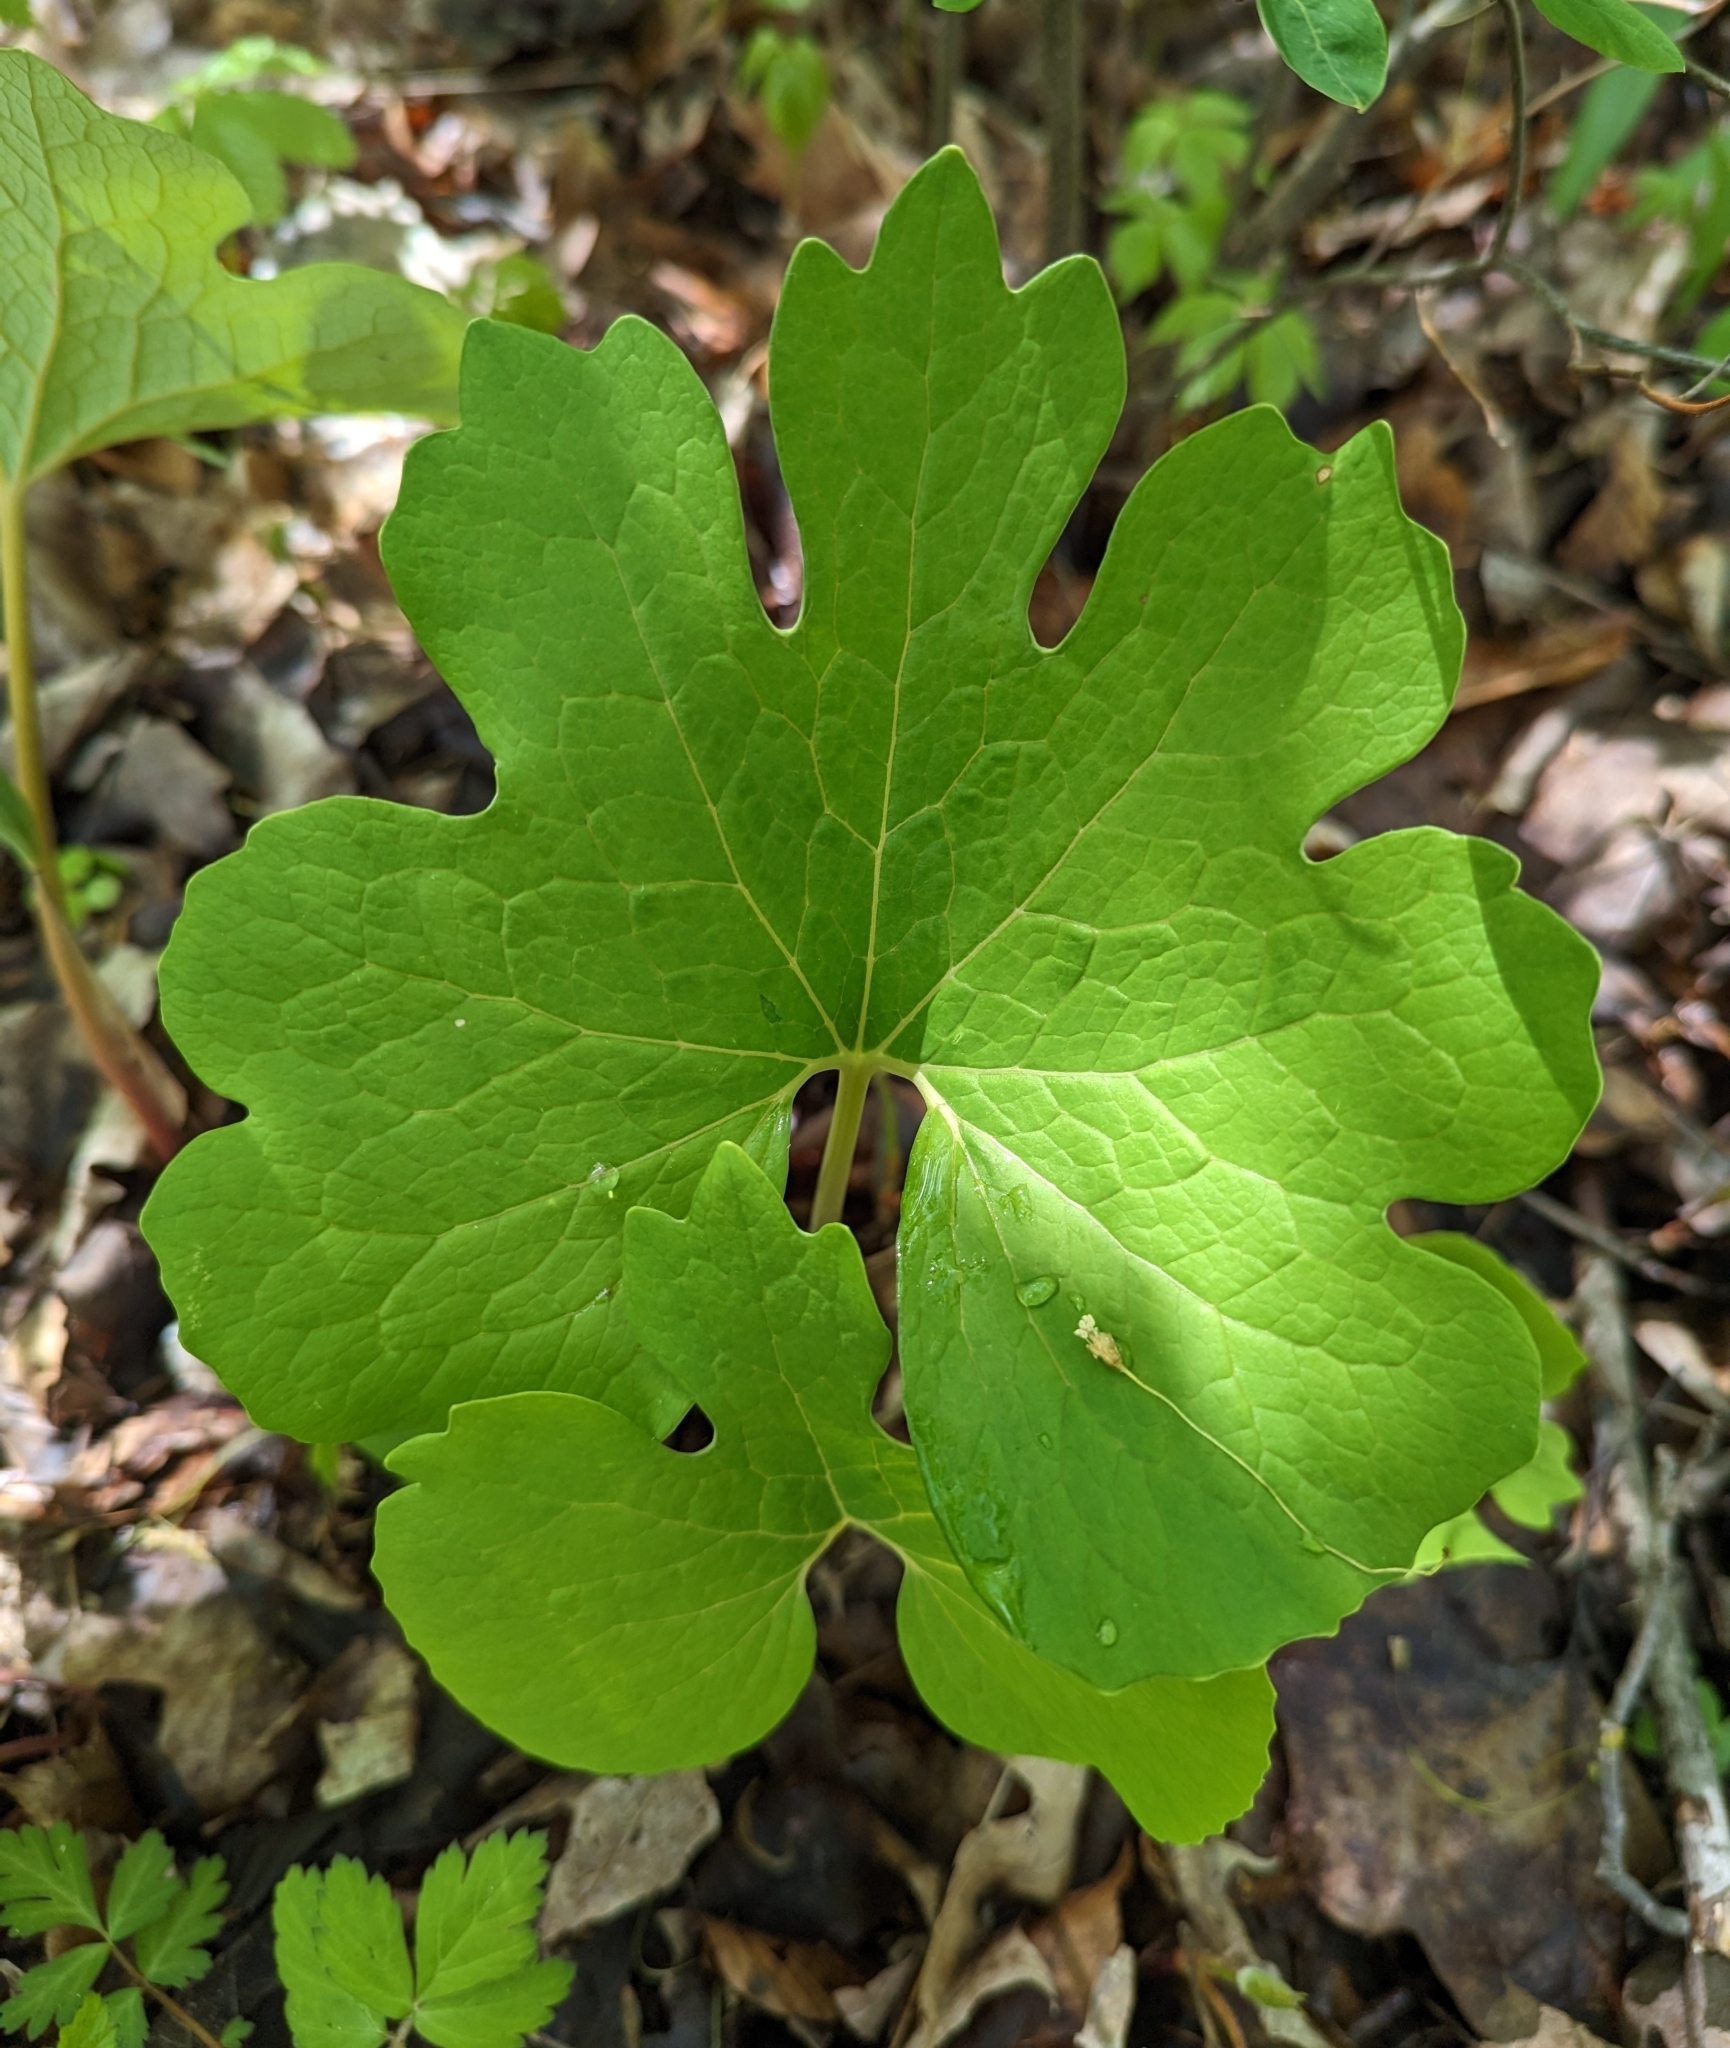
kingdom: Plantae
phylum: Tracheophyta
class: Magnoliopsida
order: Ranunculales
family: Papaveraceae
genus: Sanguinaria
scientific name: Sanguinaria canadensis
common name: Bloodroot
